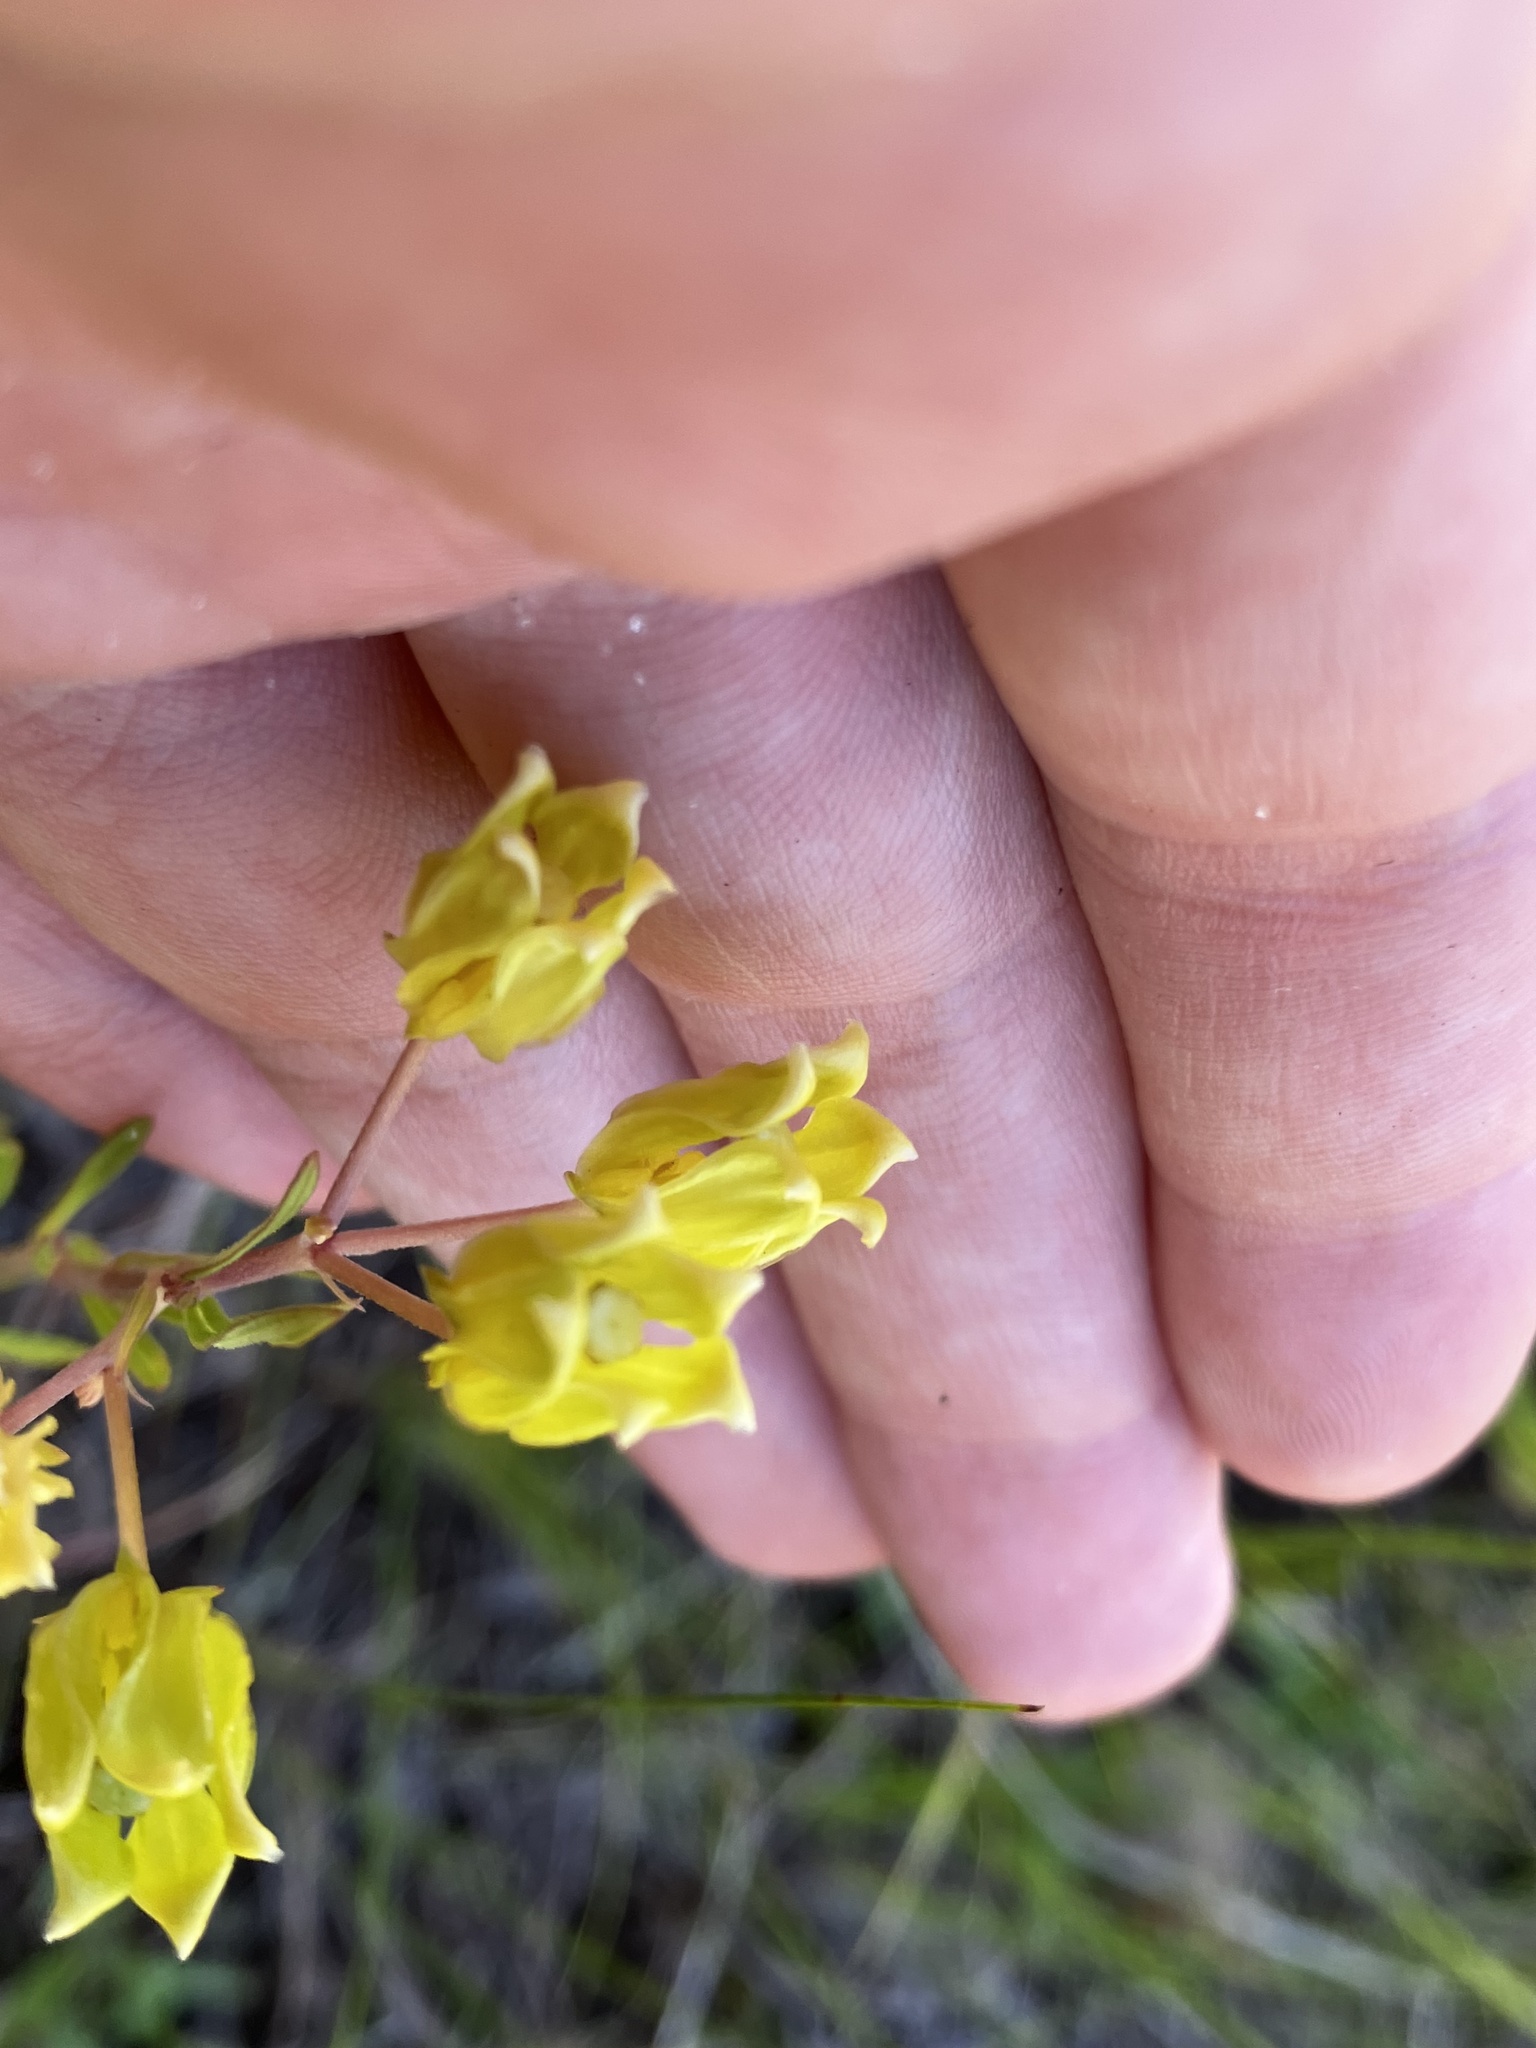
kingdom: Plantae
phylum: Tracheophyta
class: Magnoliopsida
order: Gentianales
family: Apocynaceae
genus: Asclepias
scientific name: Asclepias pedicellata
